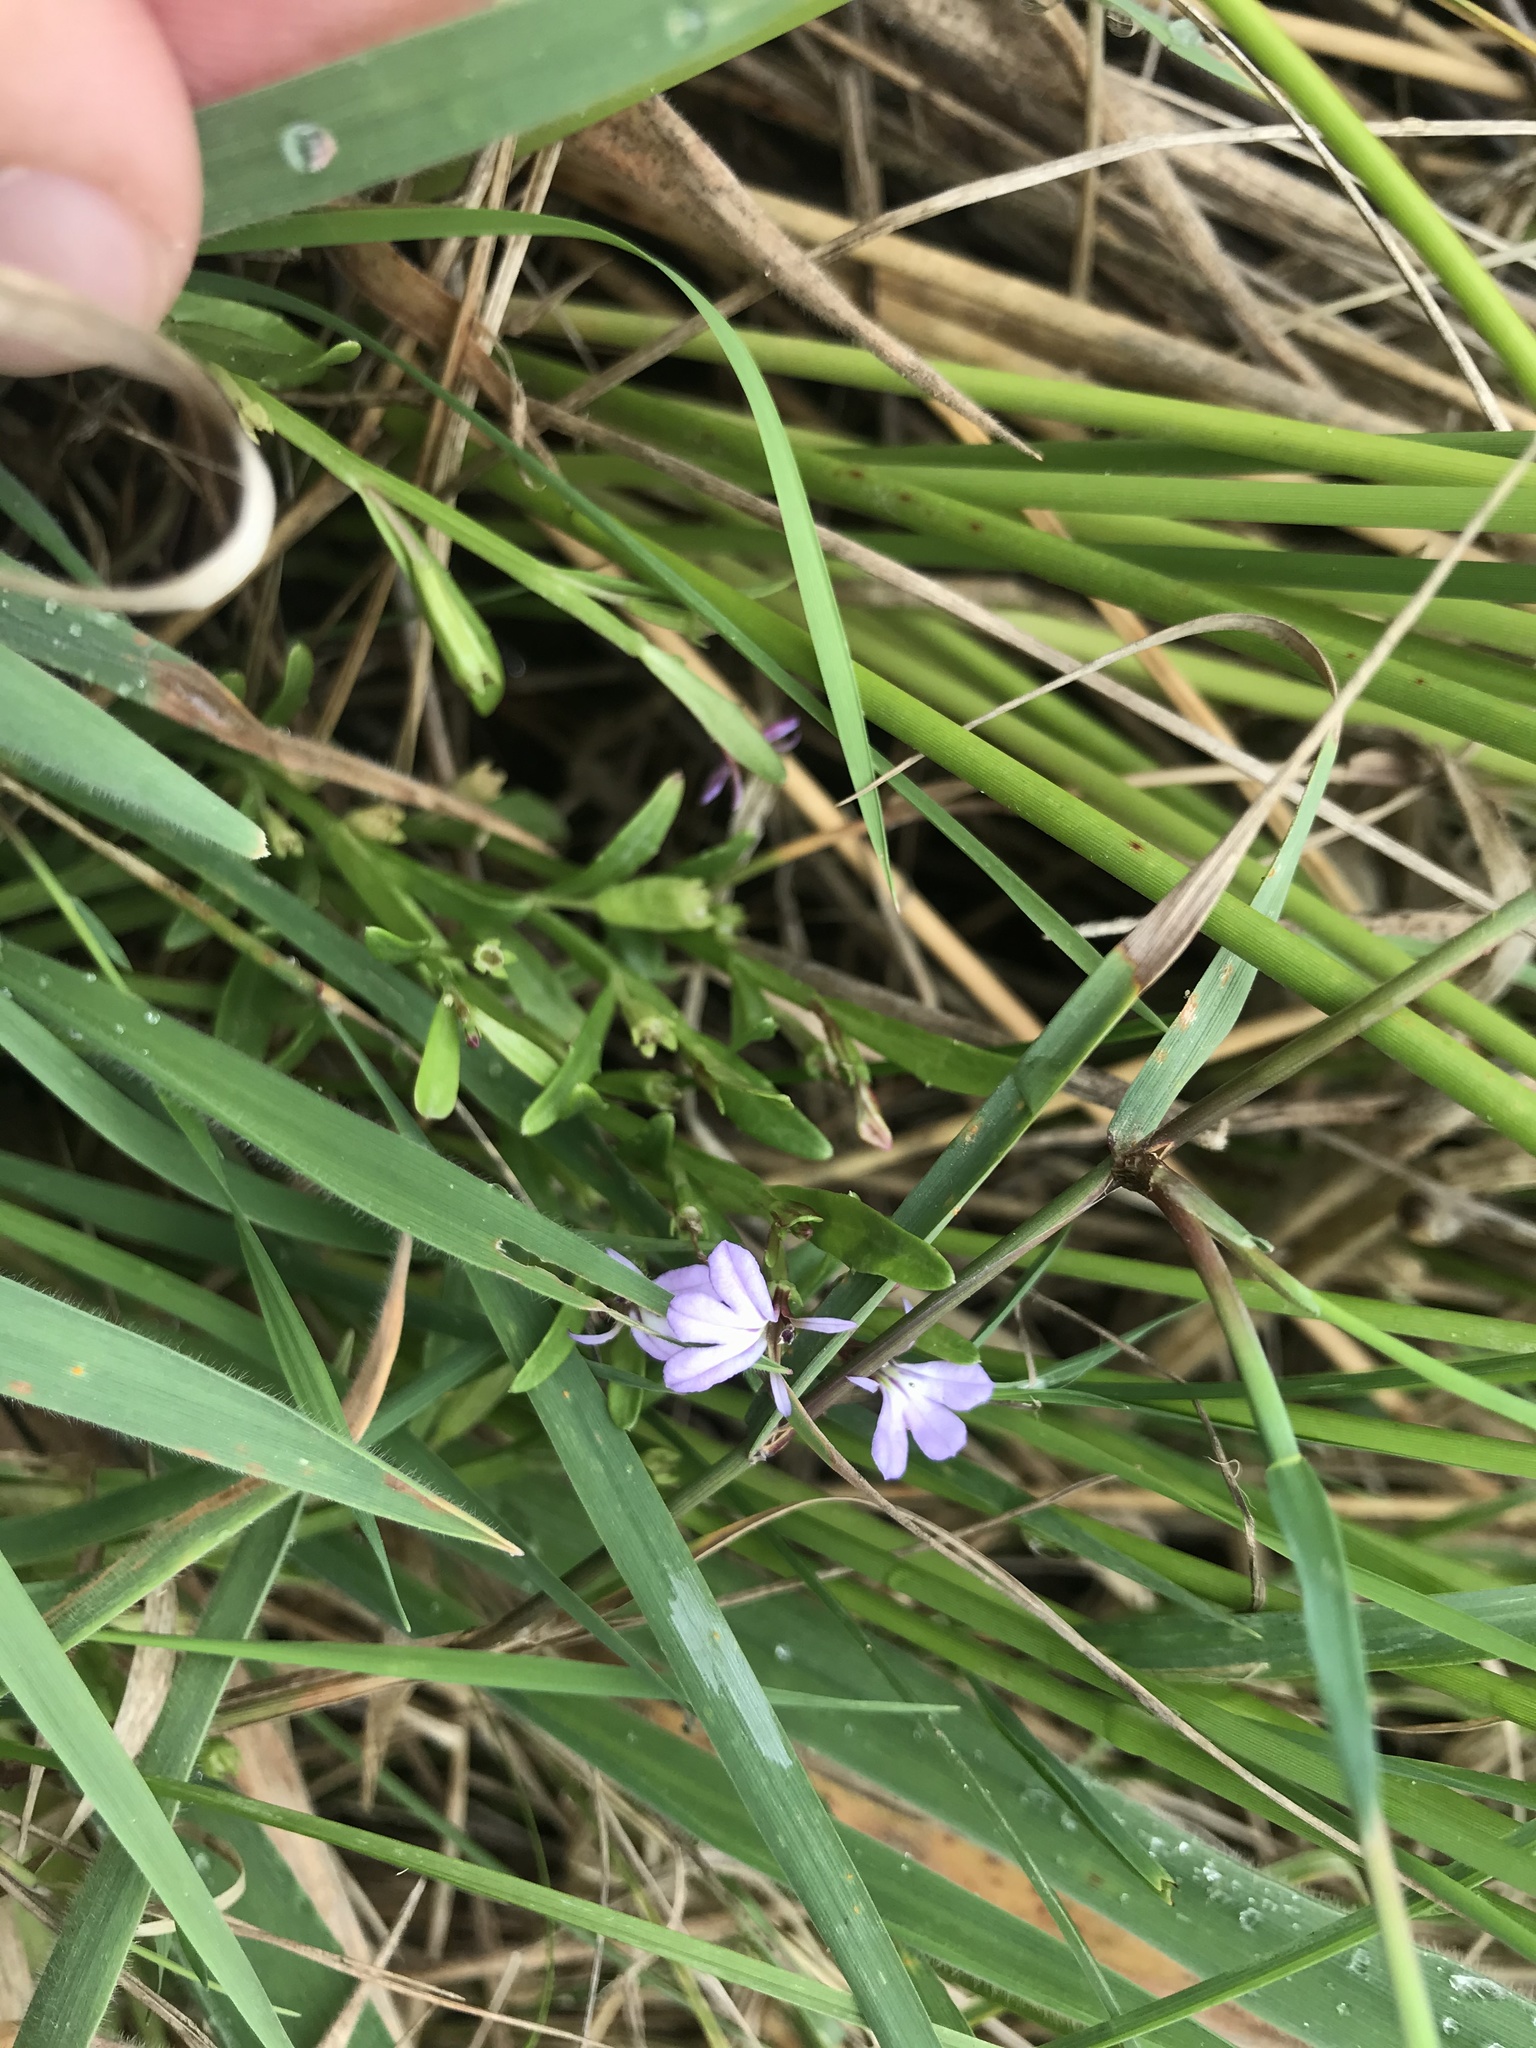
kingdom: Plantae
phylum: Tracheophyta
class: Magnoliopsida
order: Asterales
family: Campanulaceae
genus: Lobelia
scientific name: Lobelia anceps
